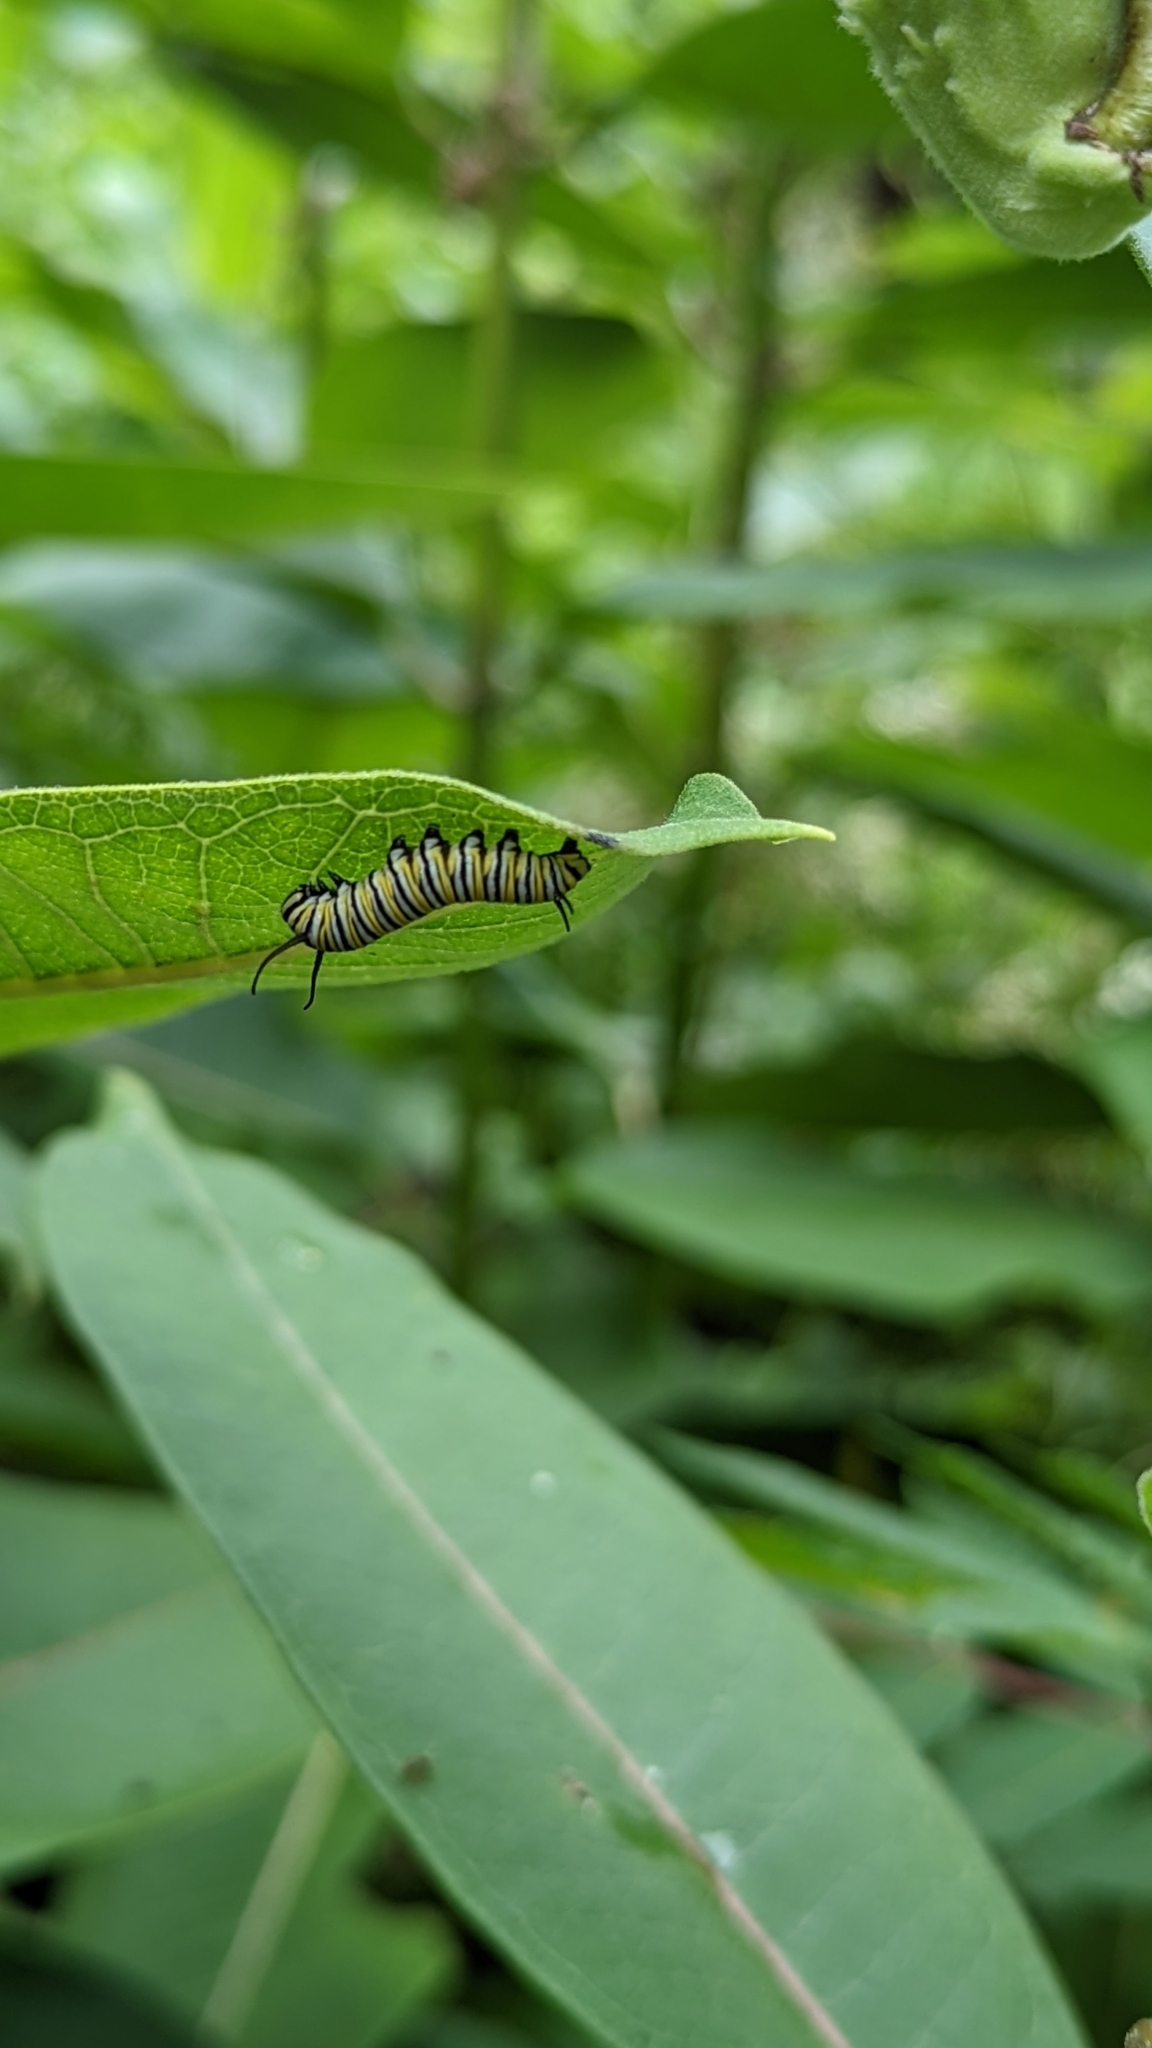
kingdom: Animalia
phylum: Arthropoda
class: Insecta
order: Lepidoptera
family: Nymphalidae
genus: Danaus
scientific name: Danaus plexippus
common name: Monarch
